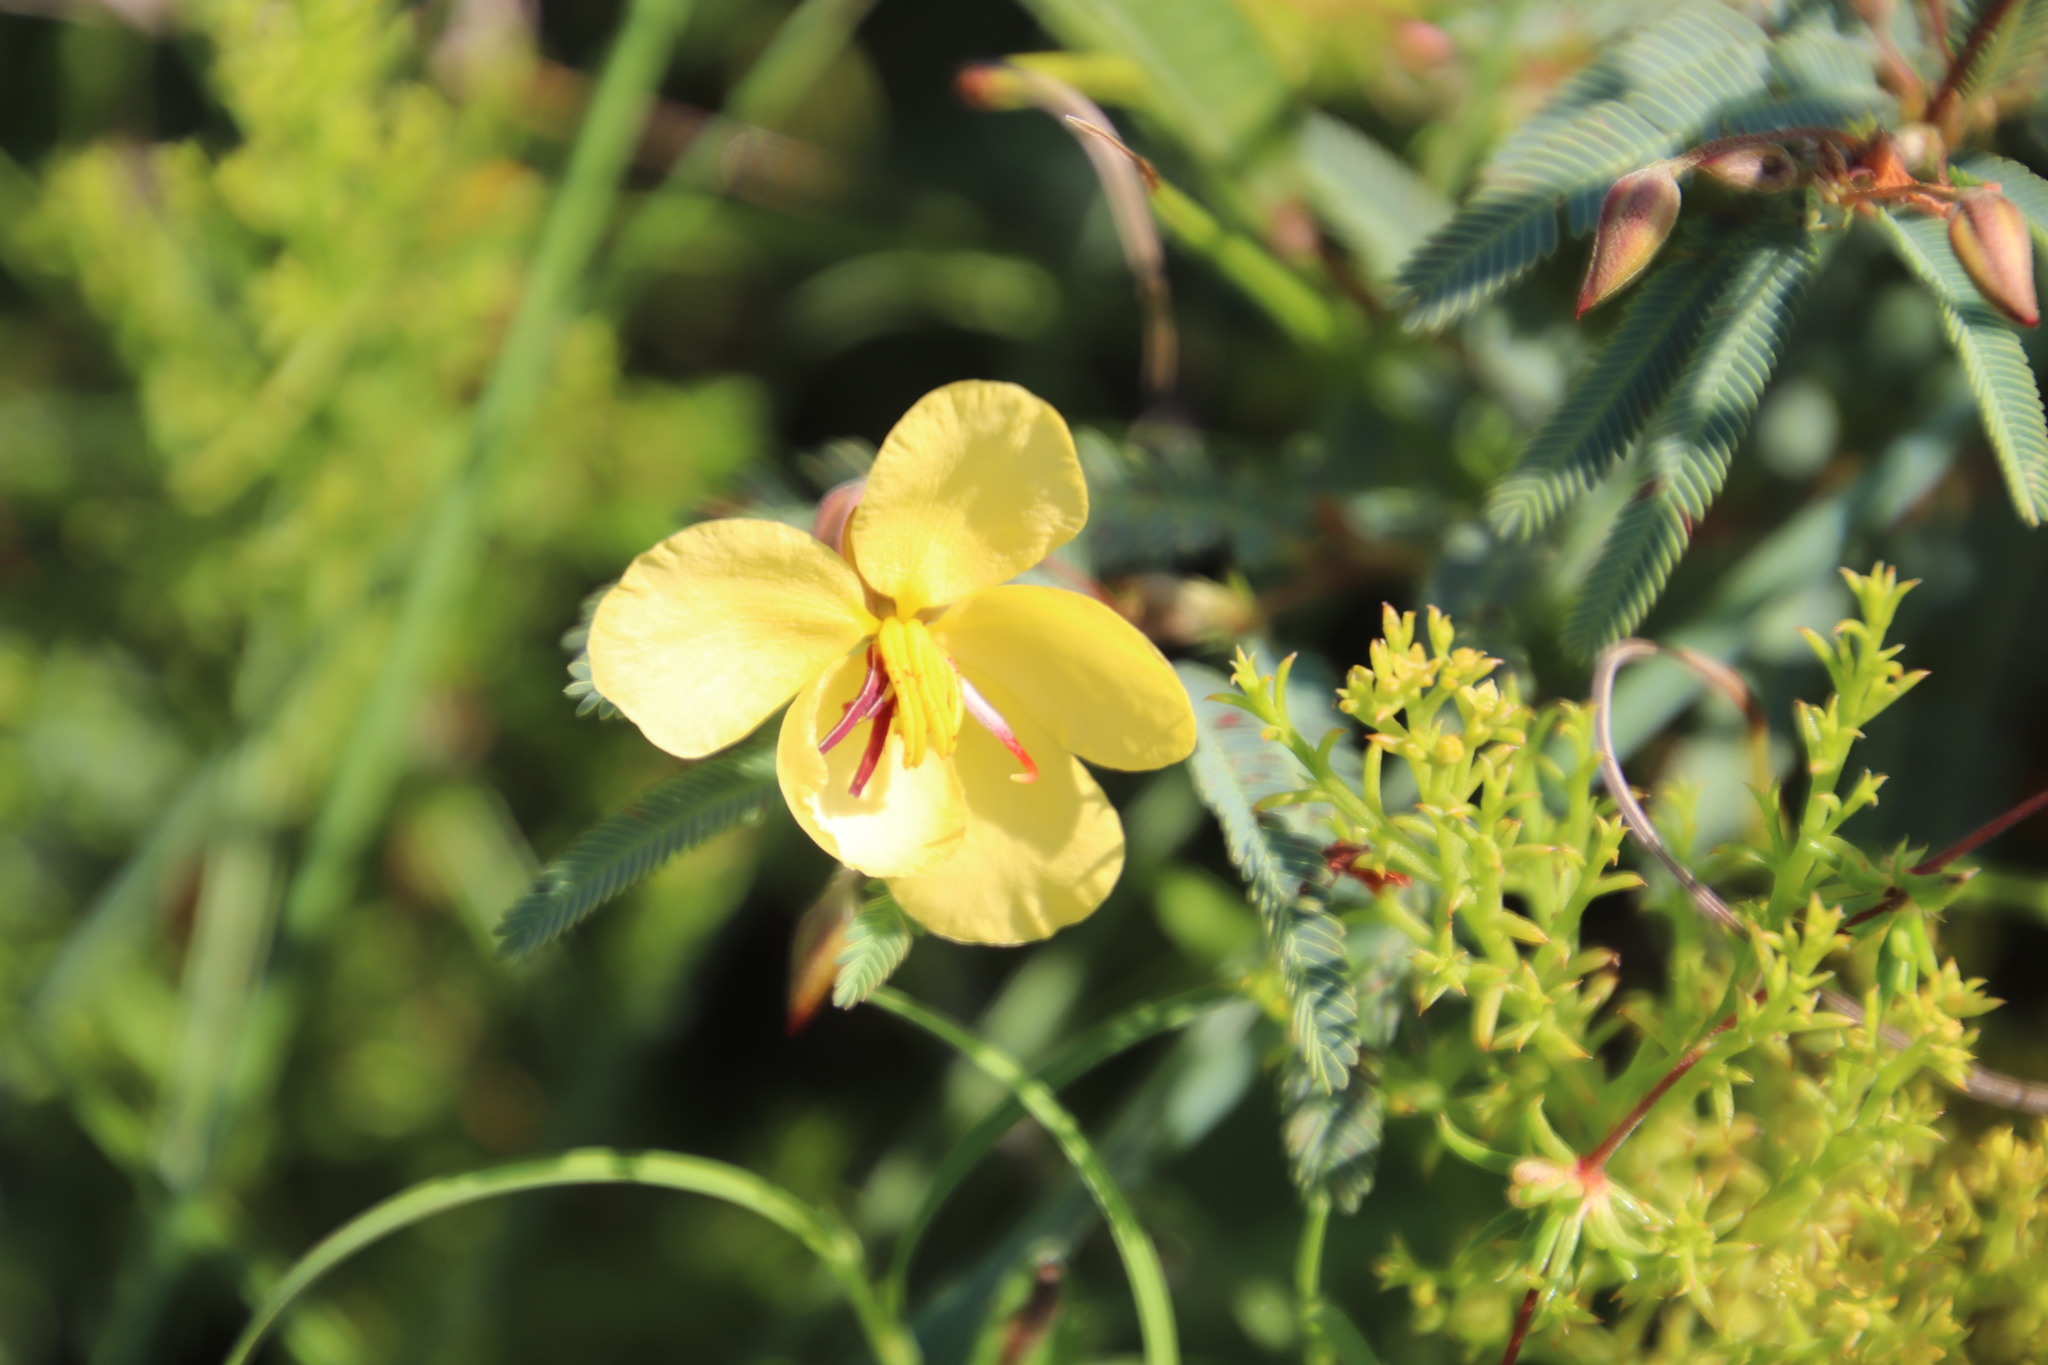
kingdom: Plantae
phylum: Tracheophyta
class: Magnoliopsida
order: Fabales
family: Fabaceae
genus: Chamaecrista
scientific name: Chamaecrista comosa
